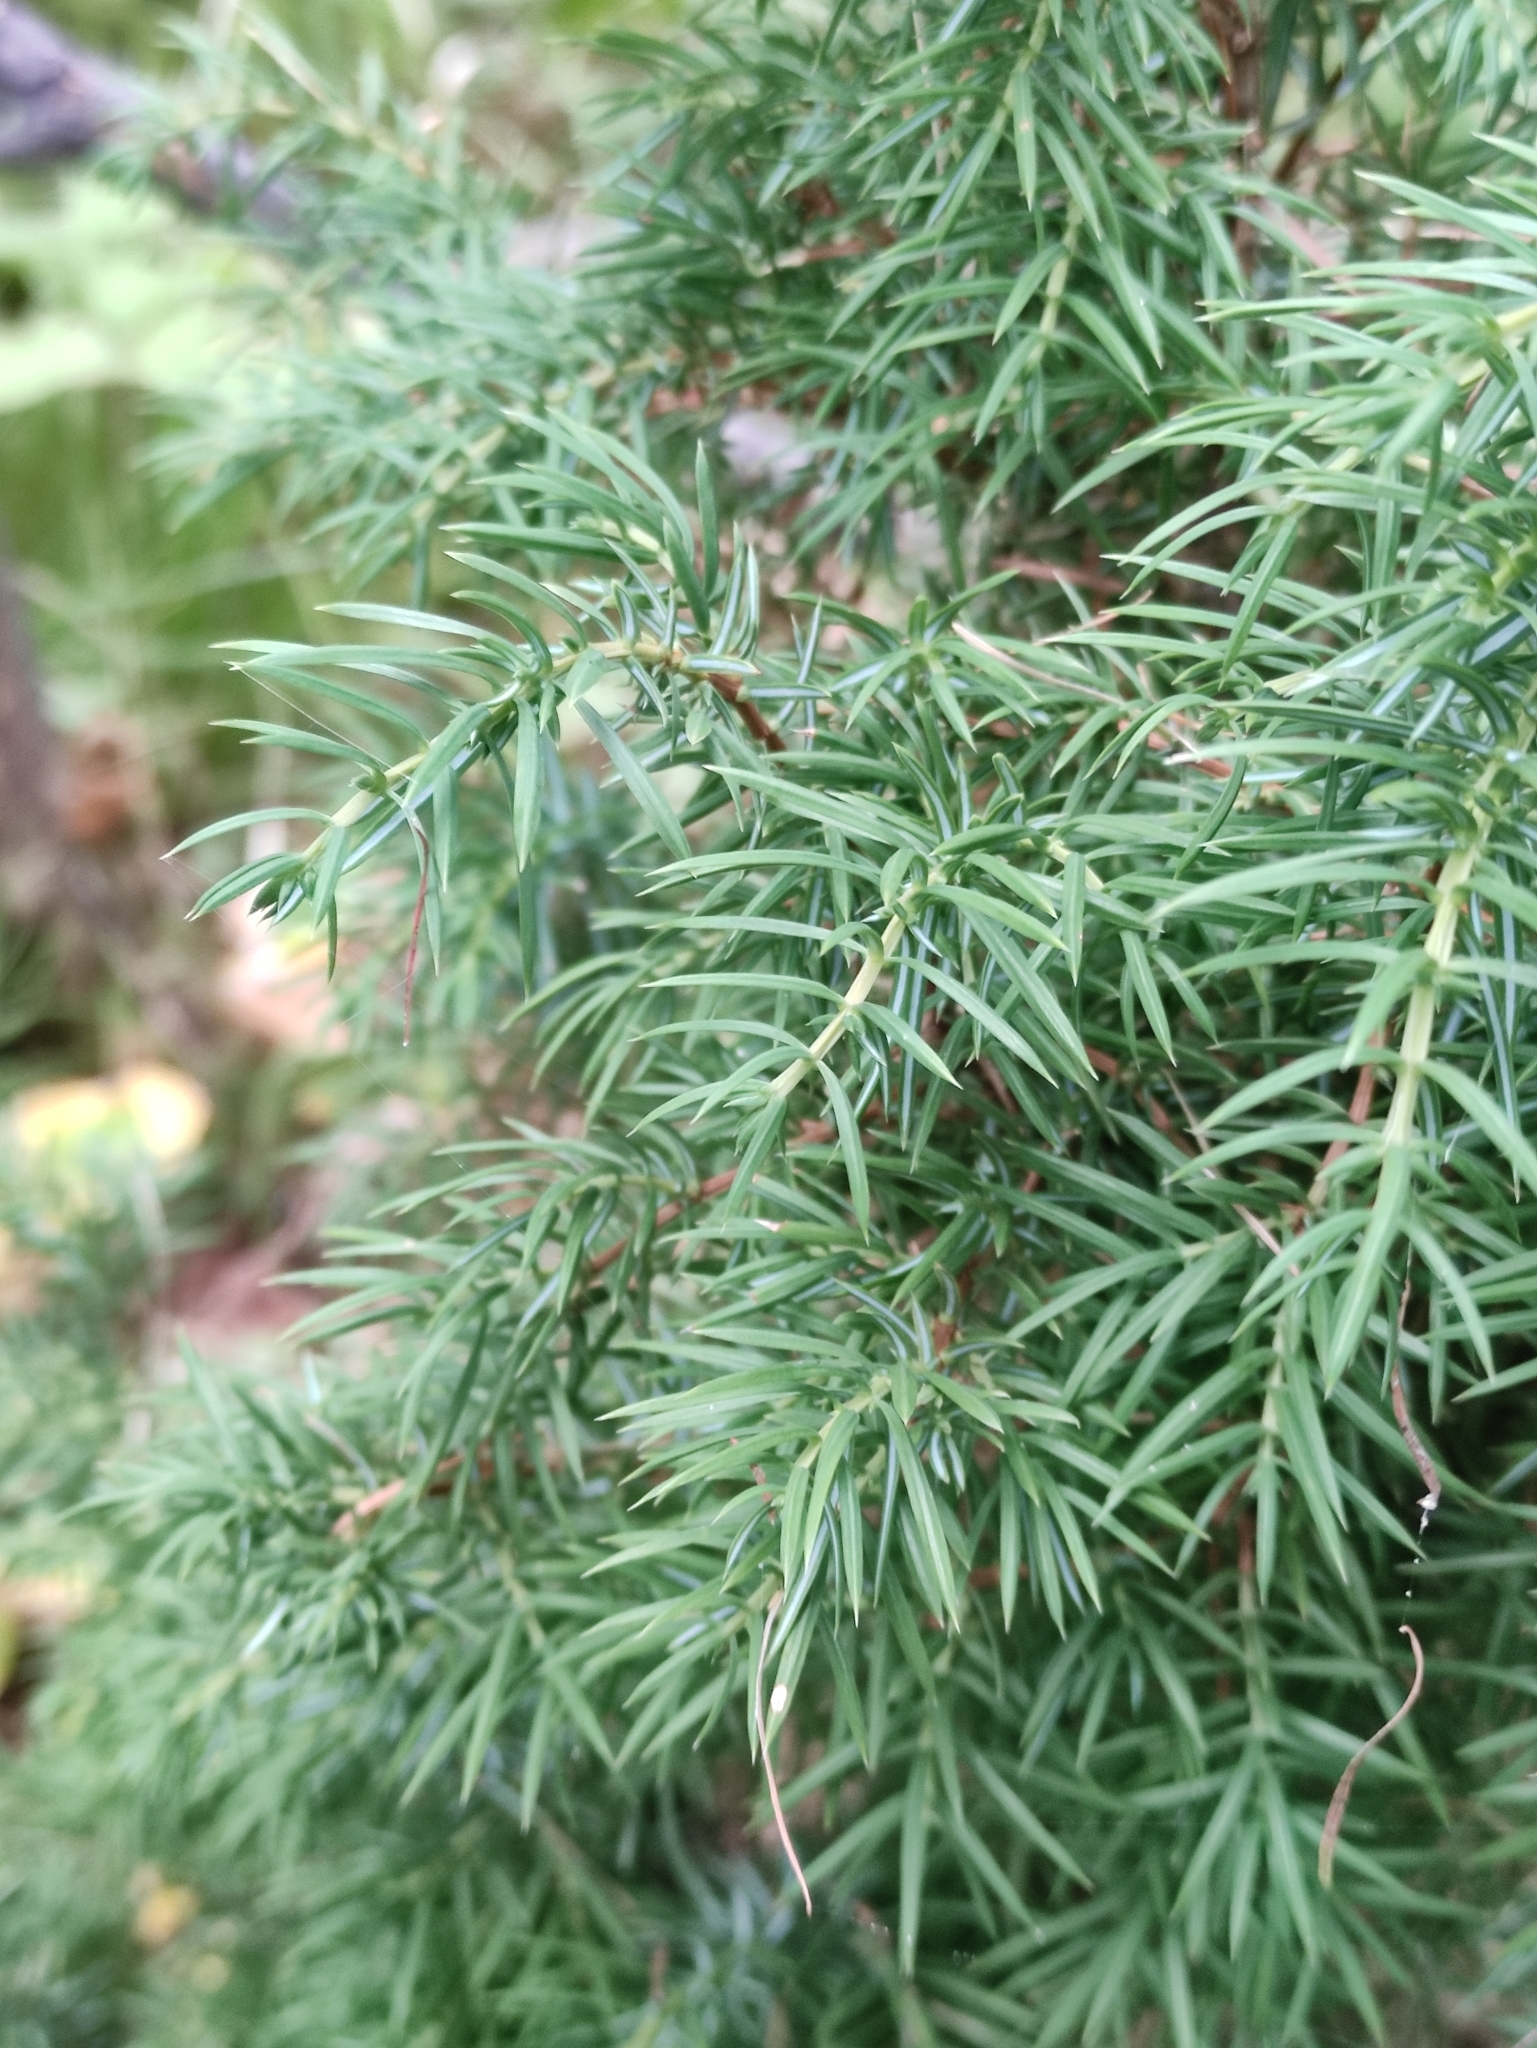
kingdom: Plantae
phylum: Tracheophyta
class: Pinopsida
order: Pinales
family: Cupressaceae
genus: Juniperus
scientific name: Juniperus communis
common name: Common juniper
